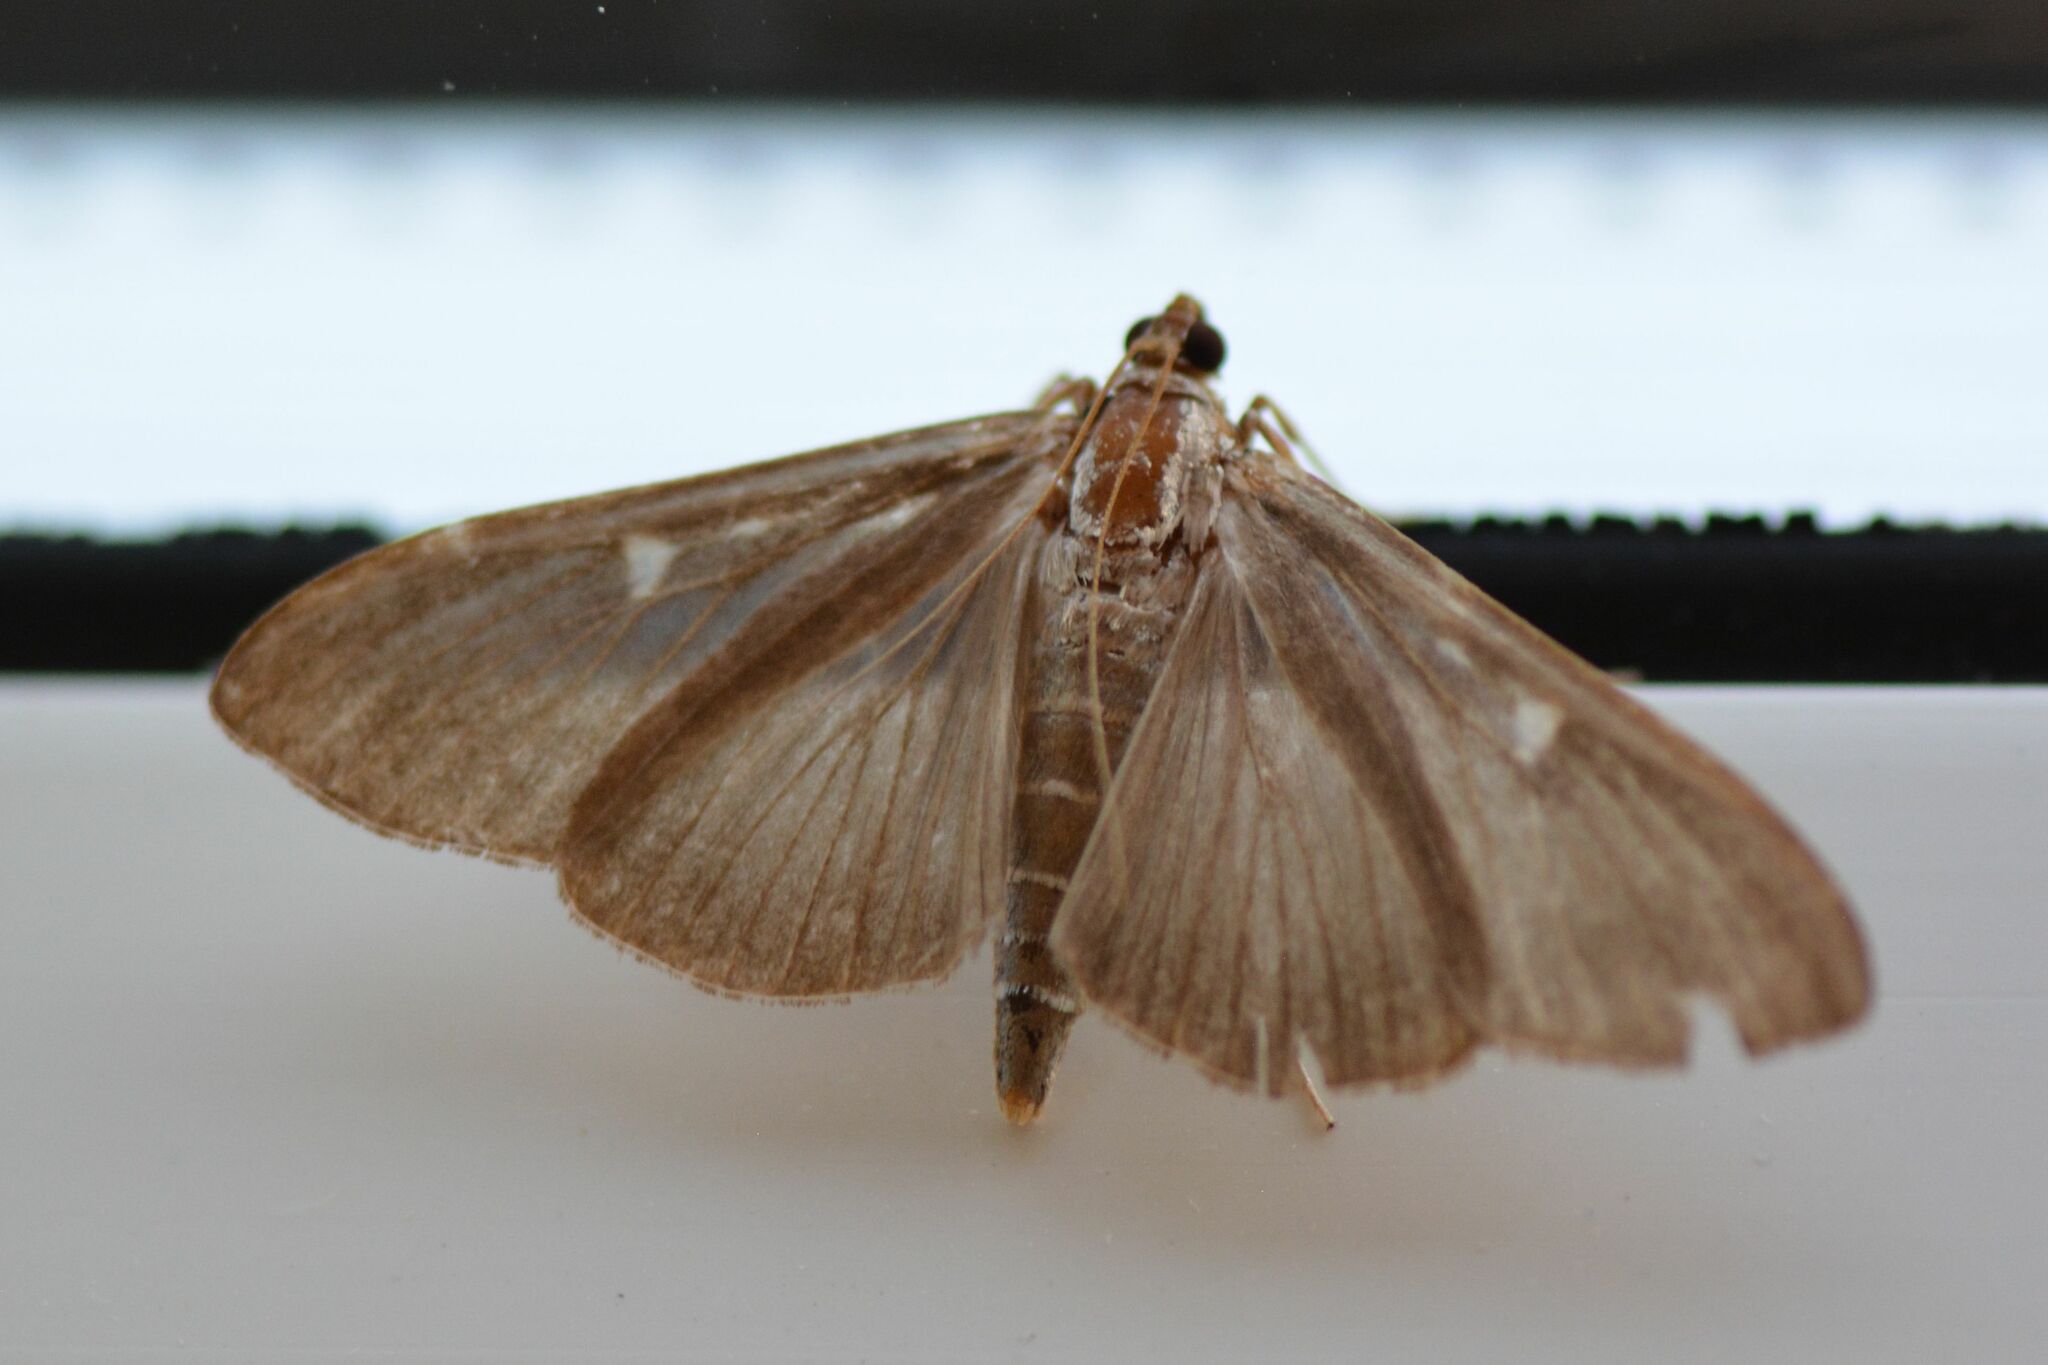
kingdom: Animalia
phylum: Arthropoda
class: Insecta
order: Lepidoptera
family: Crambidae
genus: Cydalima
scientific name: Cydalima perspectalis
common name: Box tree moth
